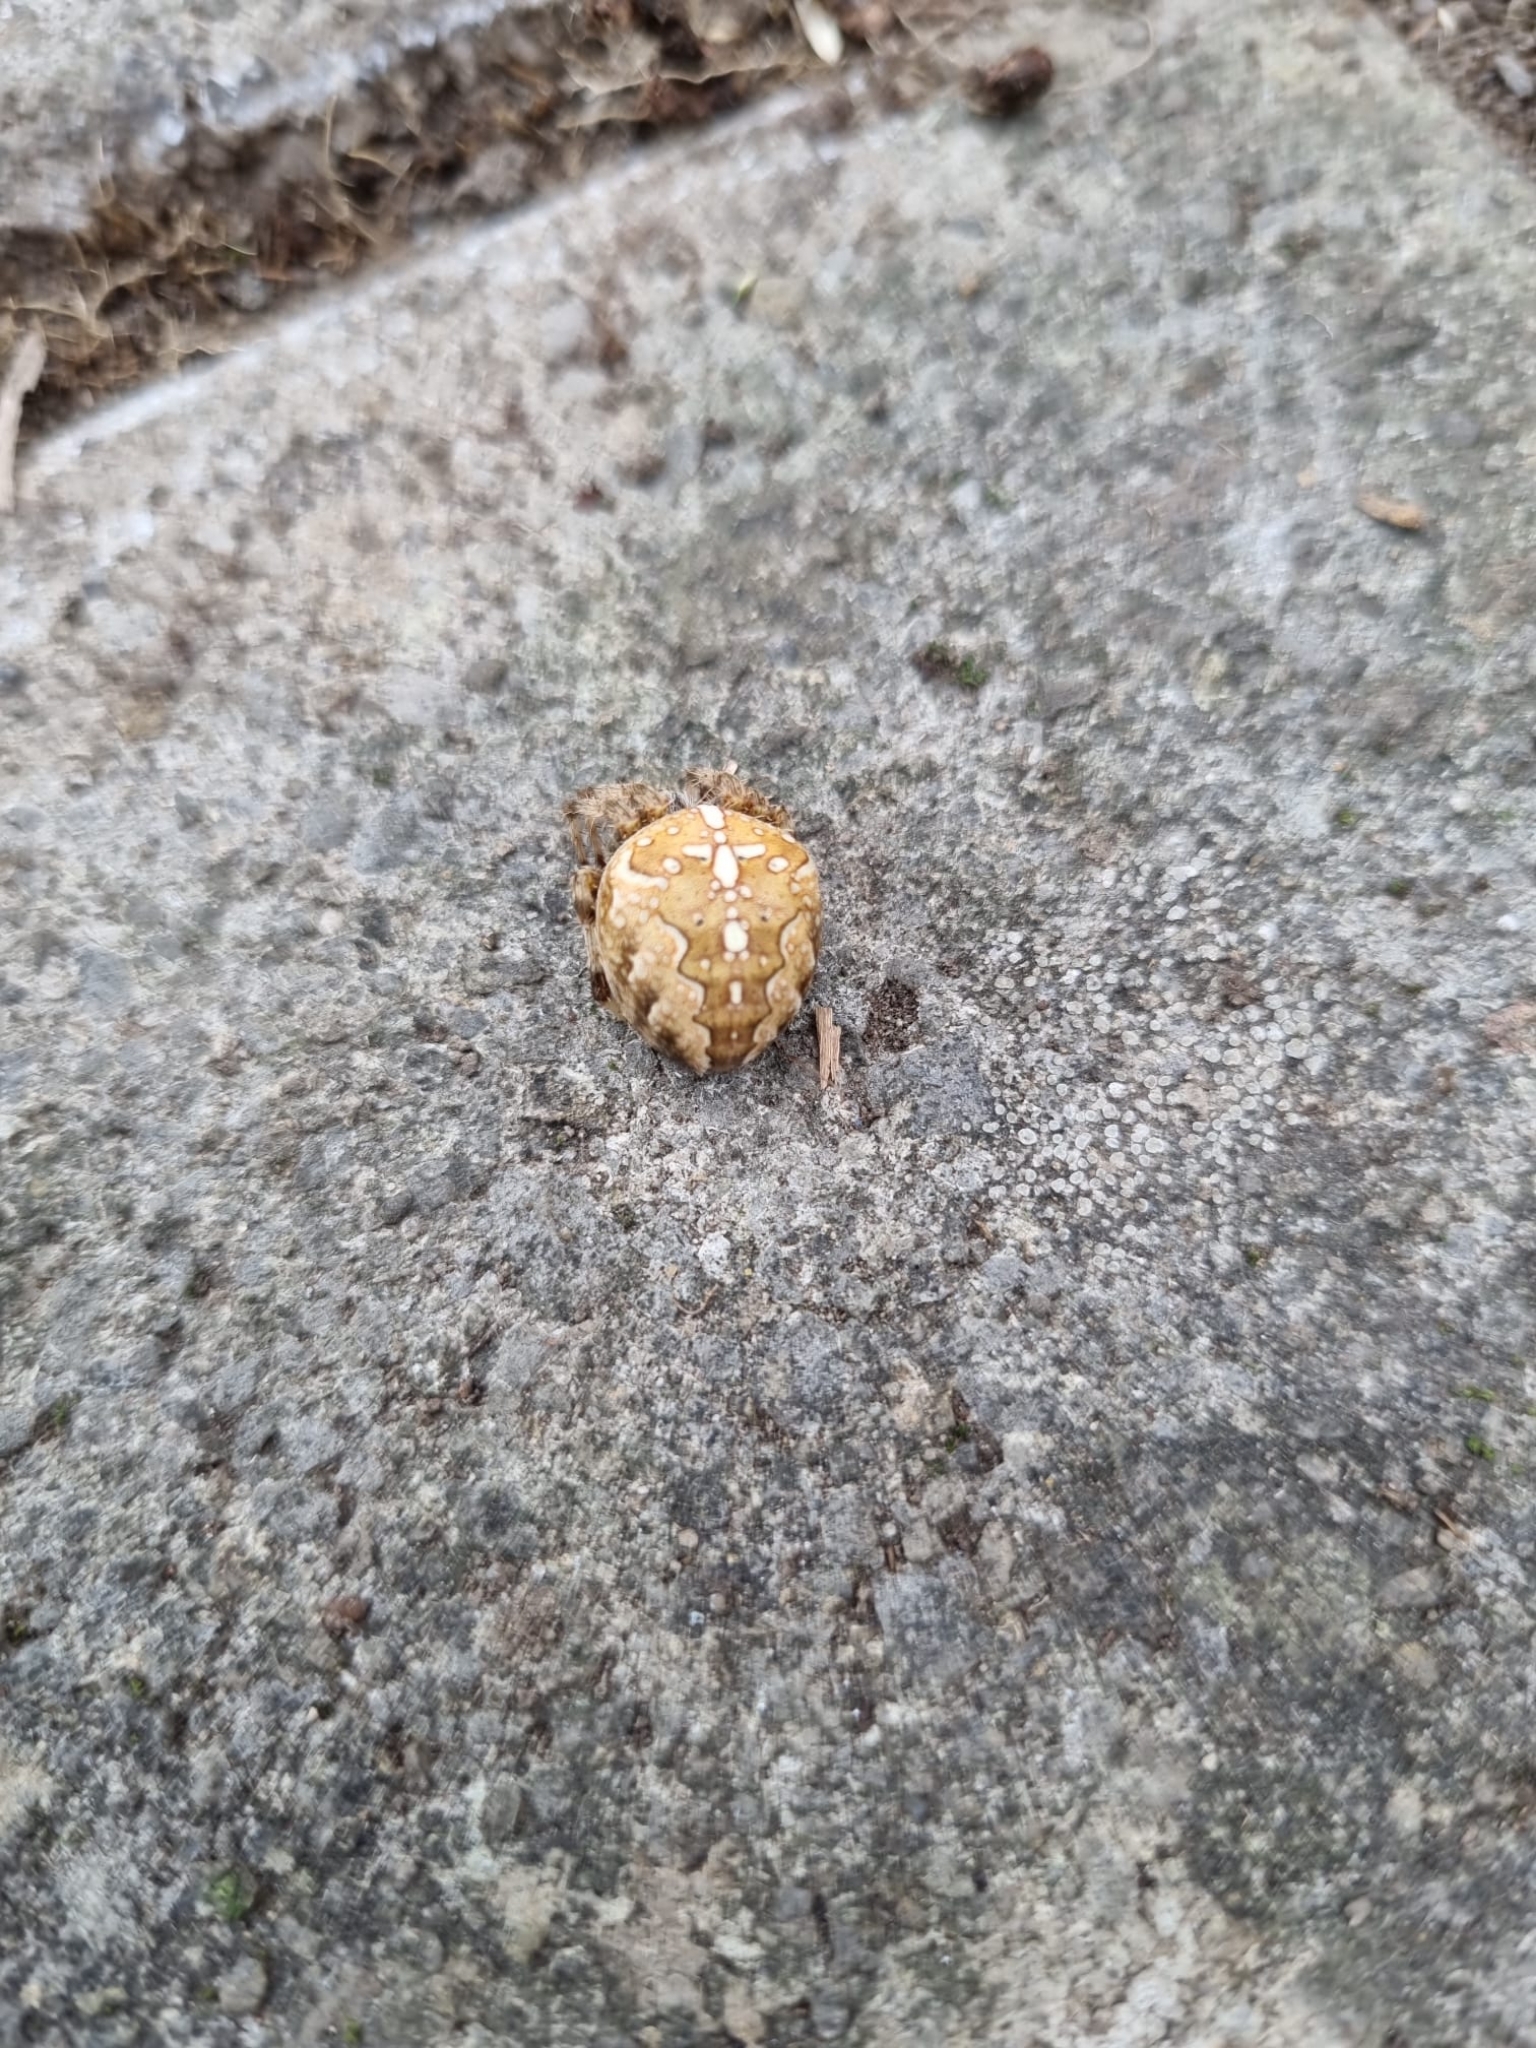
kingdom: Animalia
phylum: Arthropoda
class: Arachnida
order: Araneae
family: Araneidae
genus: Araneus
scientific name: Araneus diadematus
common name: Cross orbweaver
